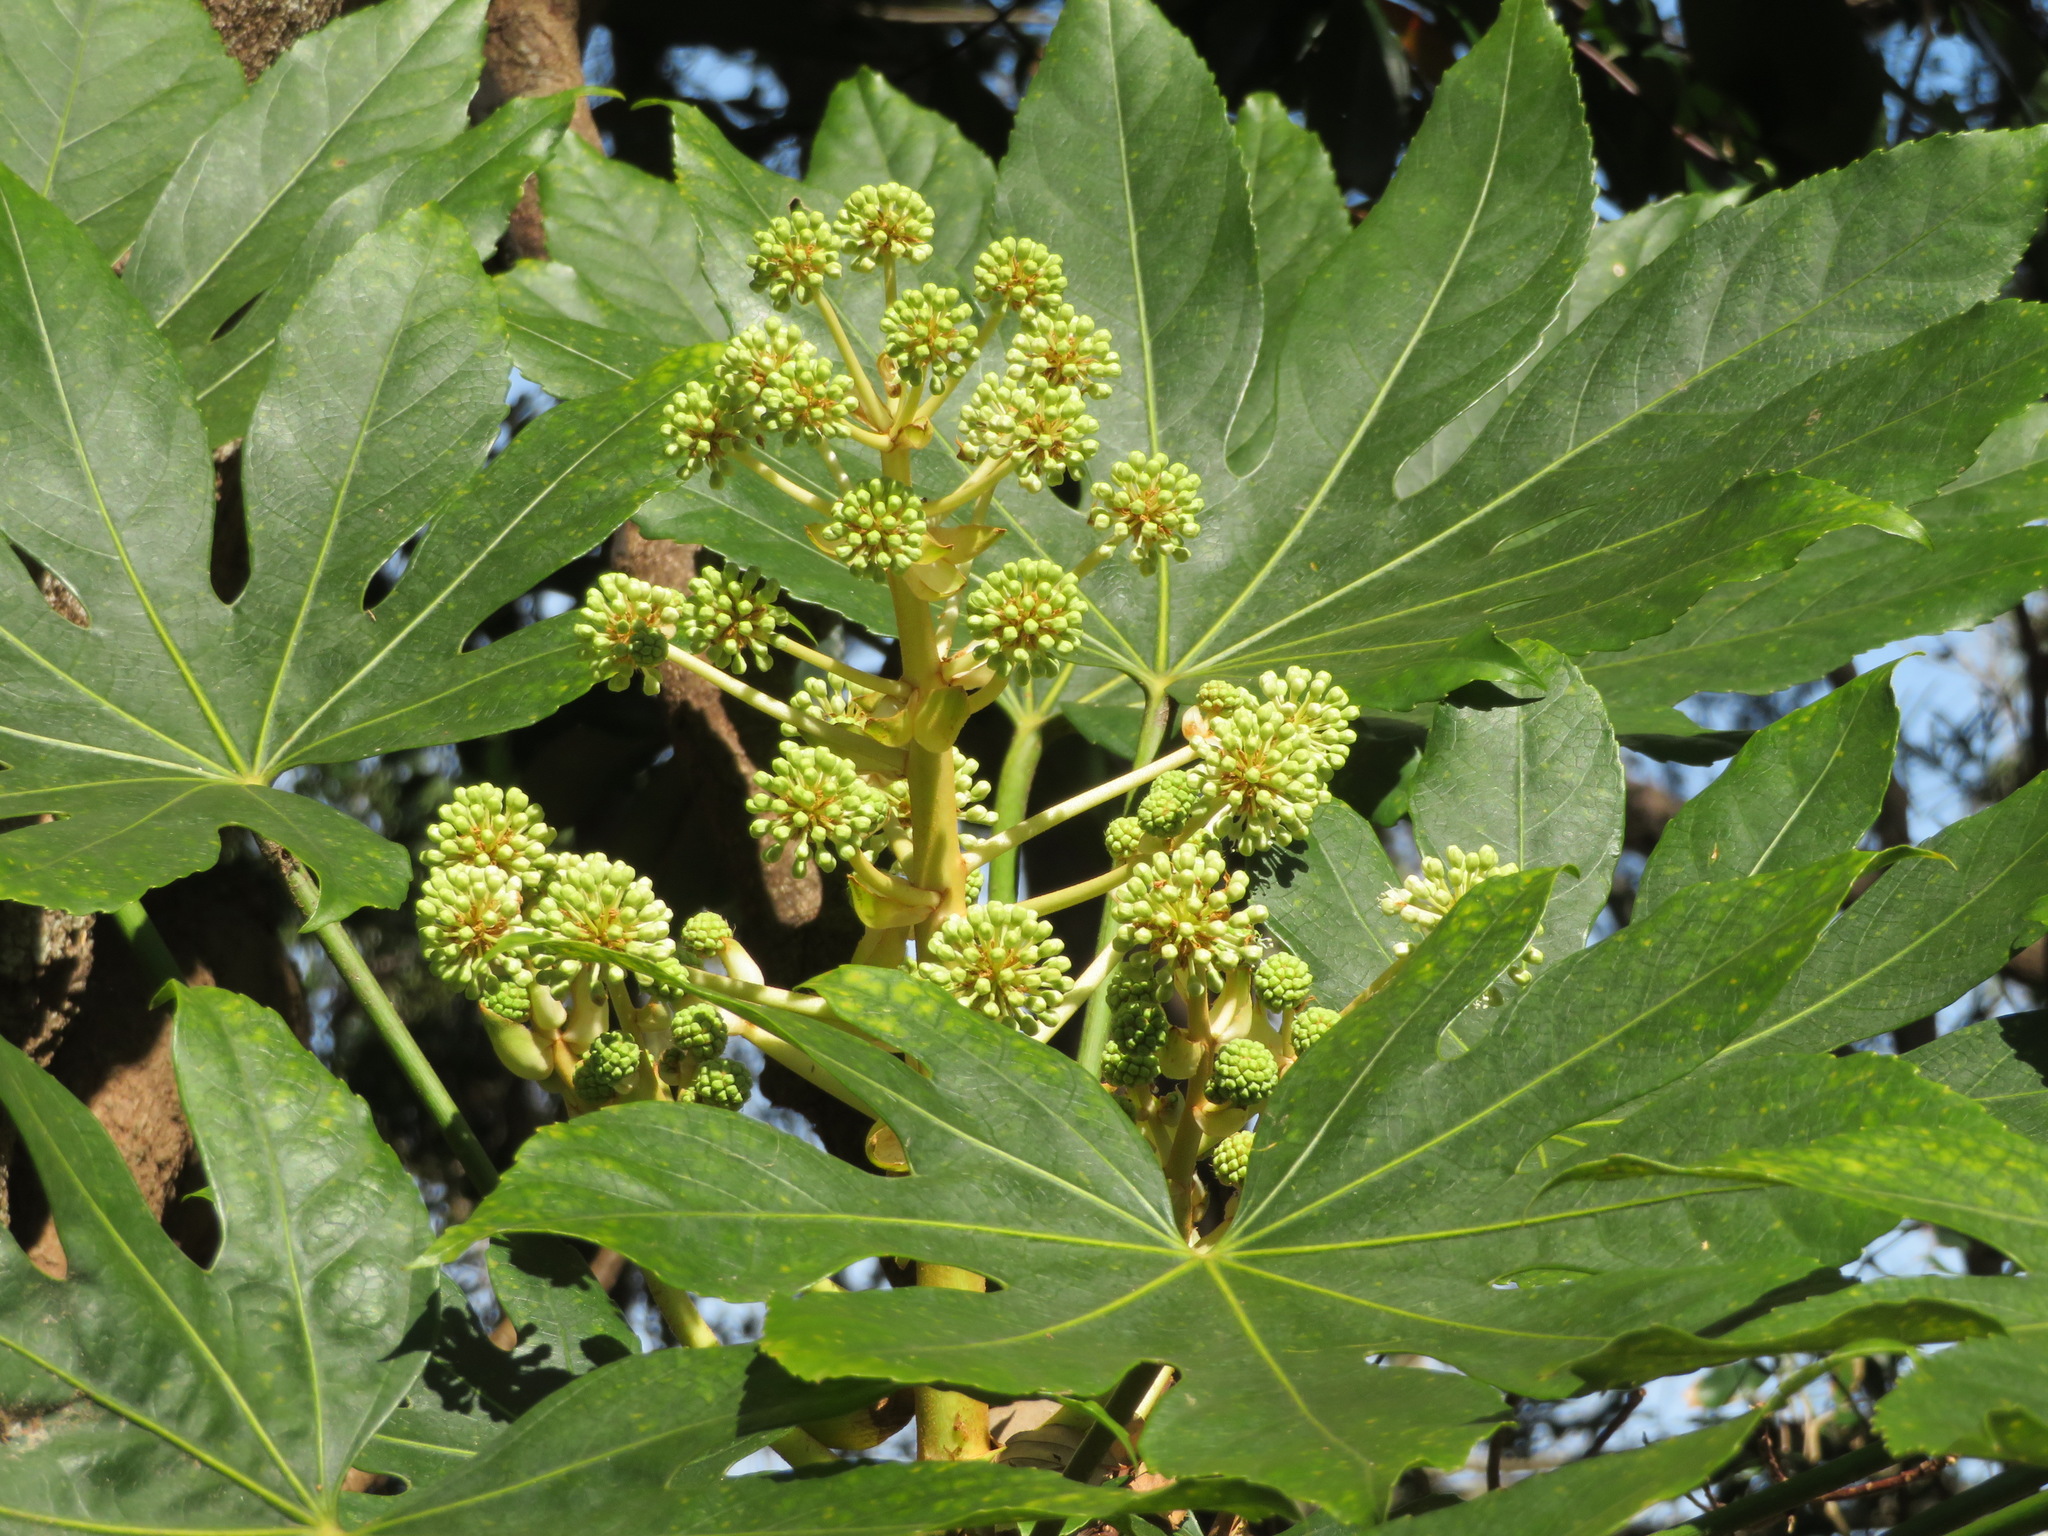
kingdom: Plantae
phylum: Tracheophyta
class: Magnoliopsida
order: Apiales
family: Araliaceae
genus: Fatsia
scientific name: Fatsia japonica
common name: Fatsia
